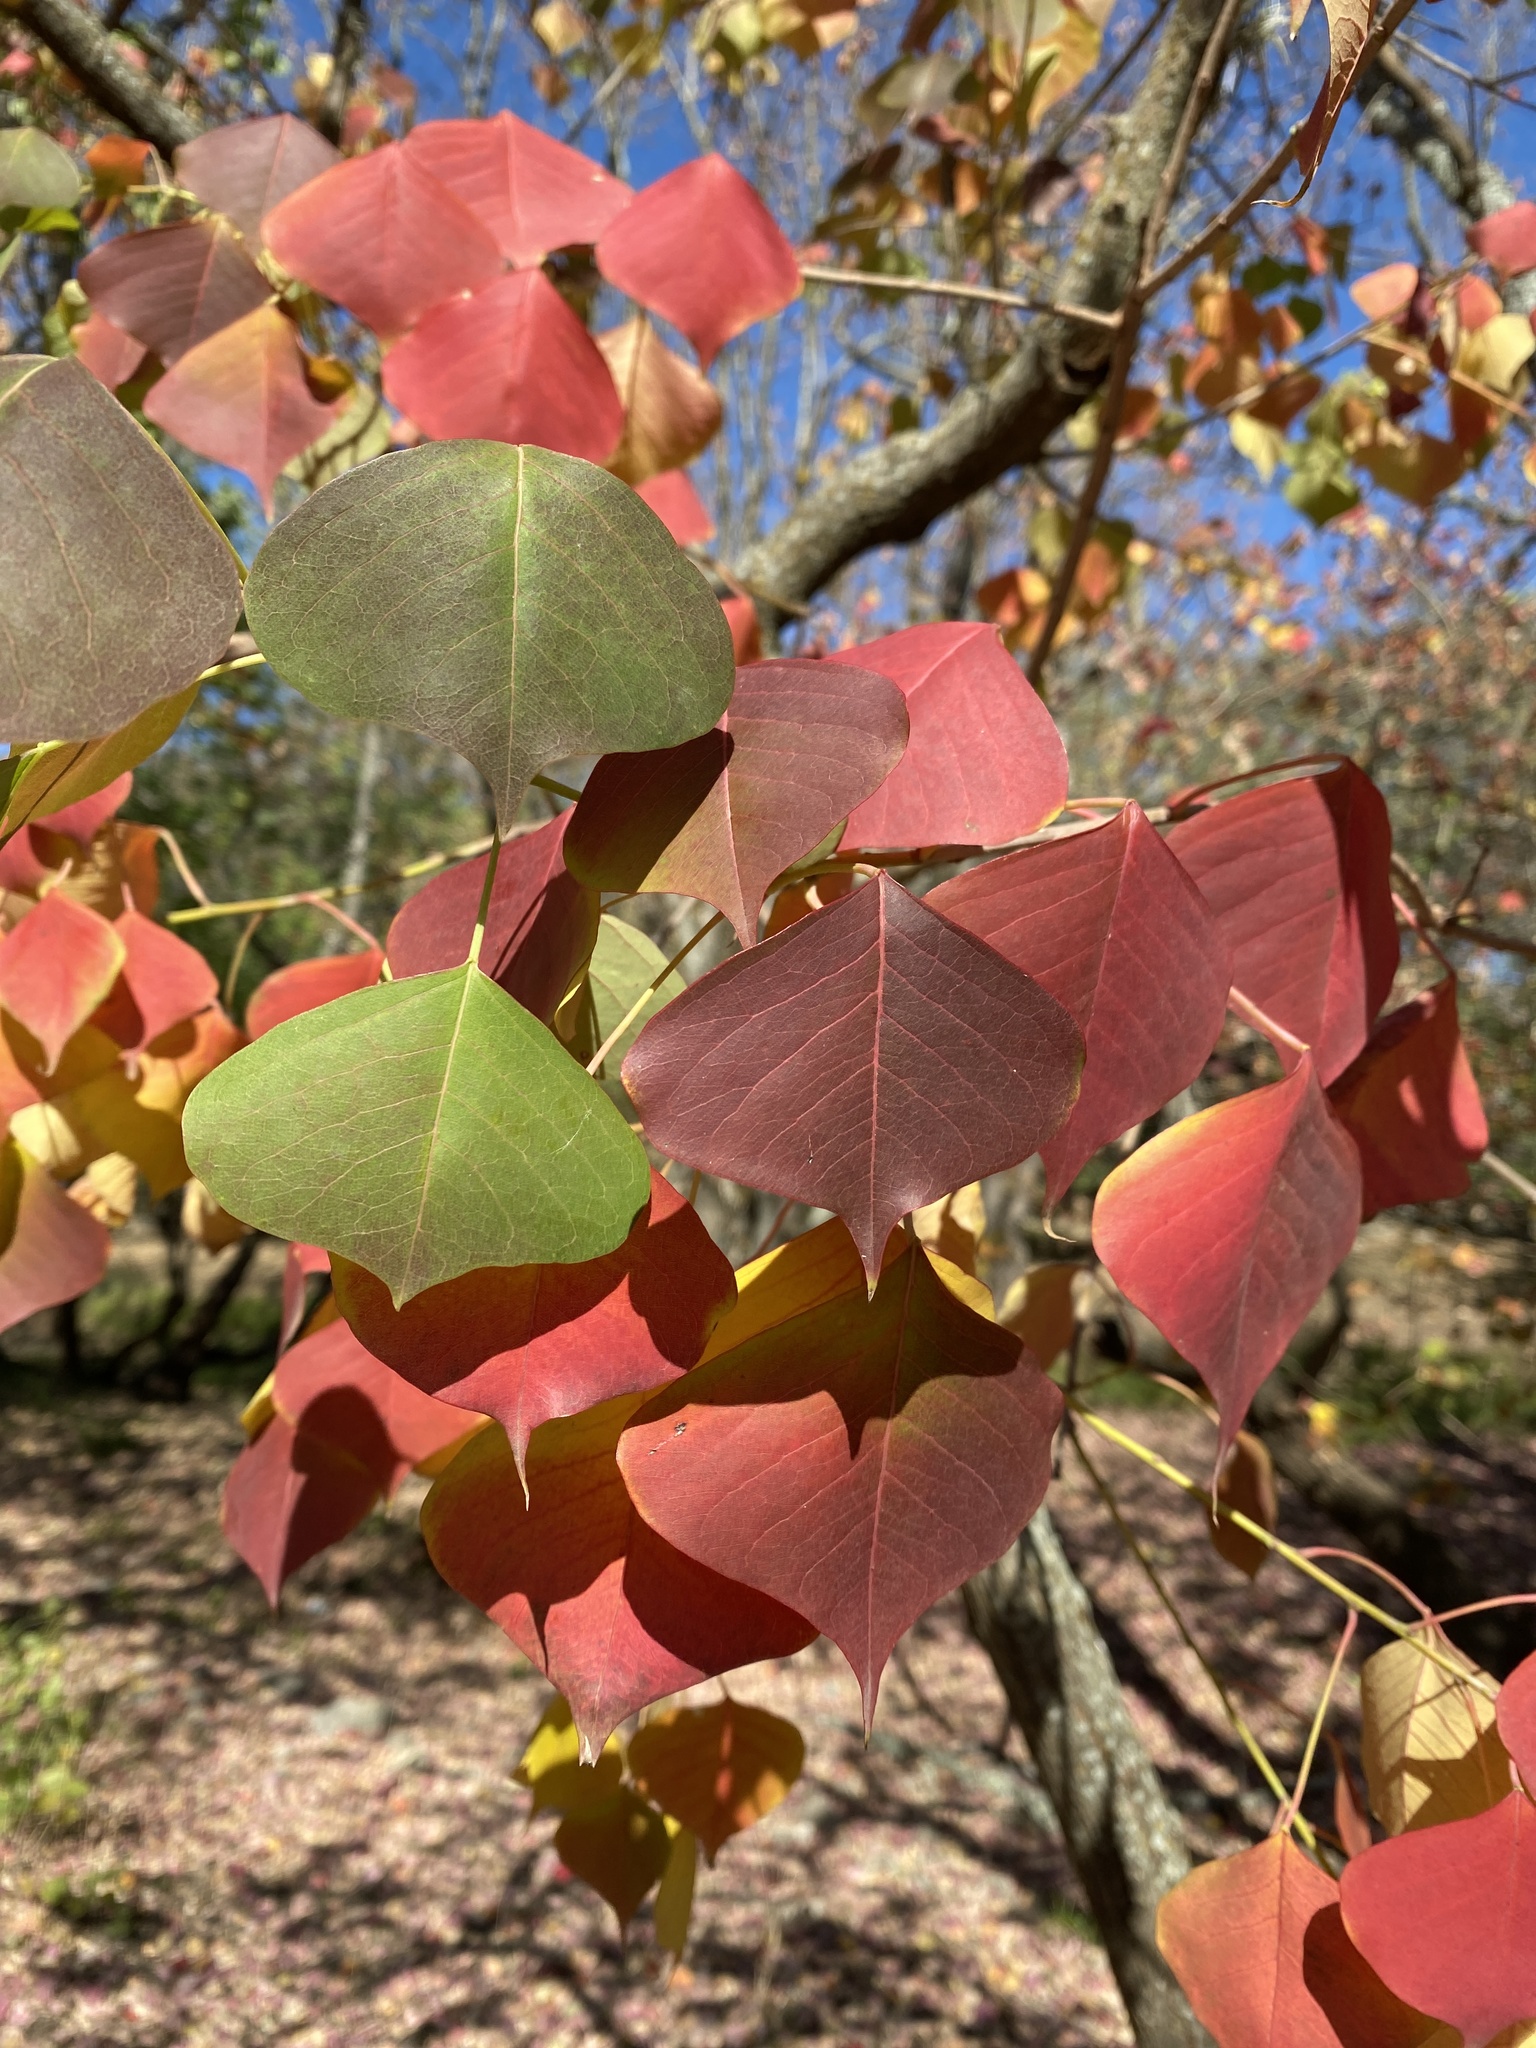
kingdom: Plantae
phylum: Tracheophyta
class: Magnoliopsida
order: Malpighiales
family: Euphorbiaceae
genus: Triadica
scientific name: Triadica sebifera
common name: Chinese tallow
